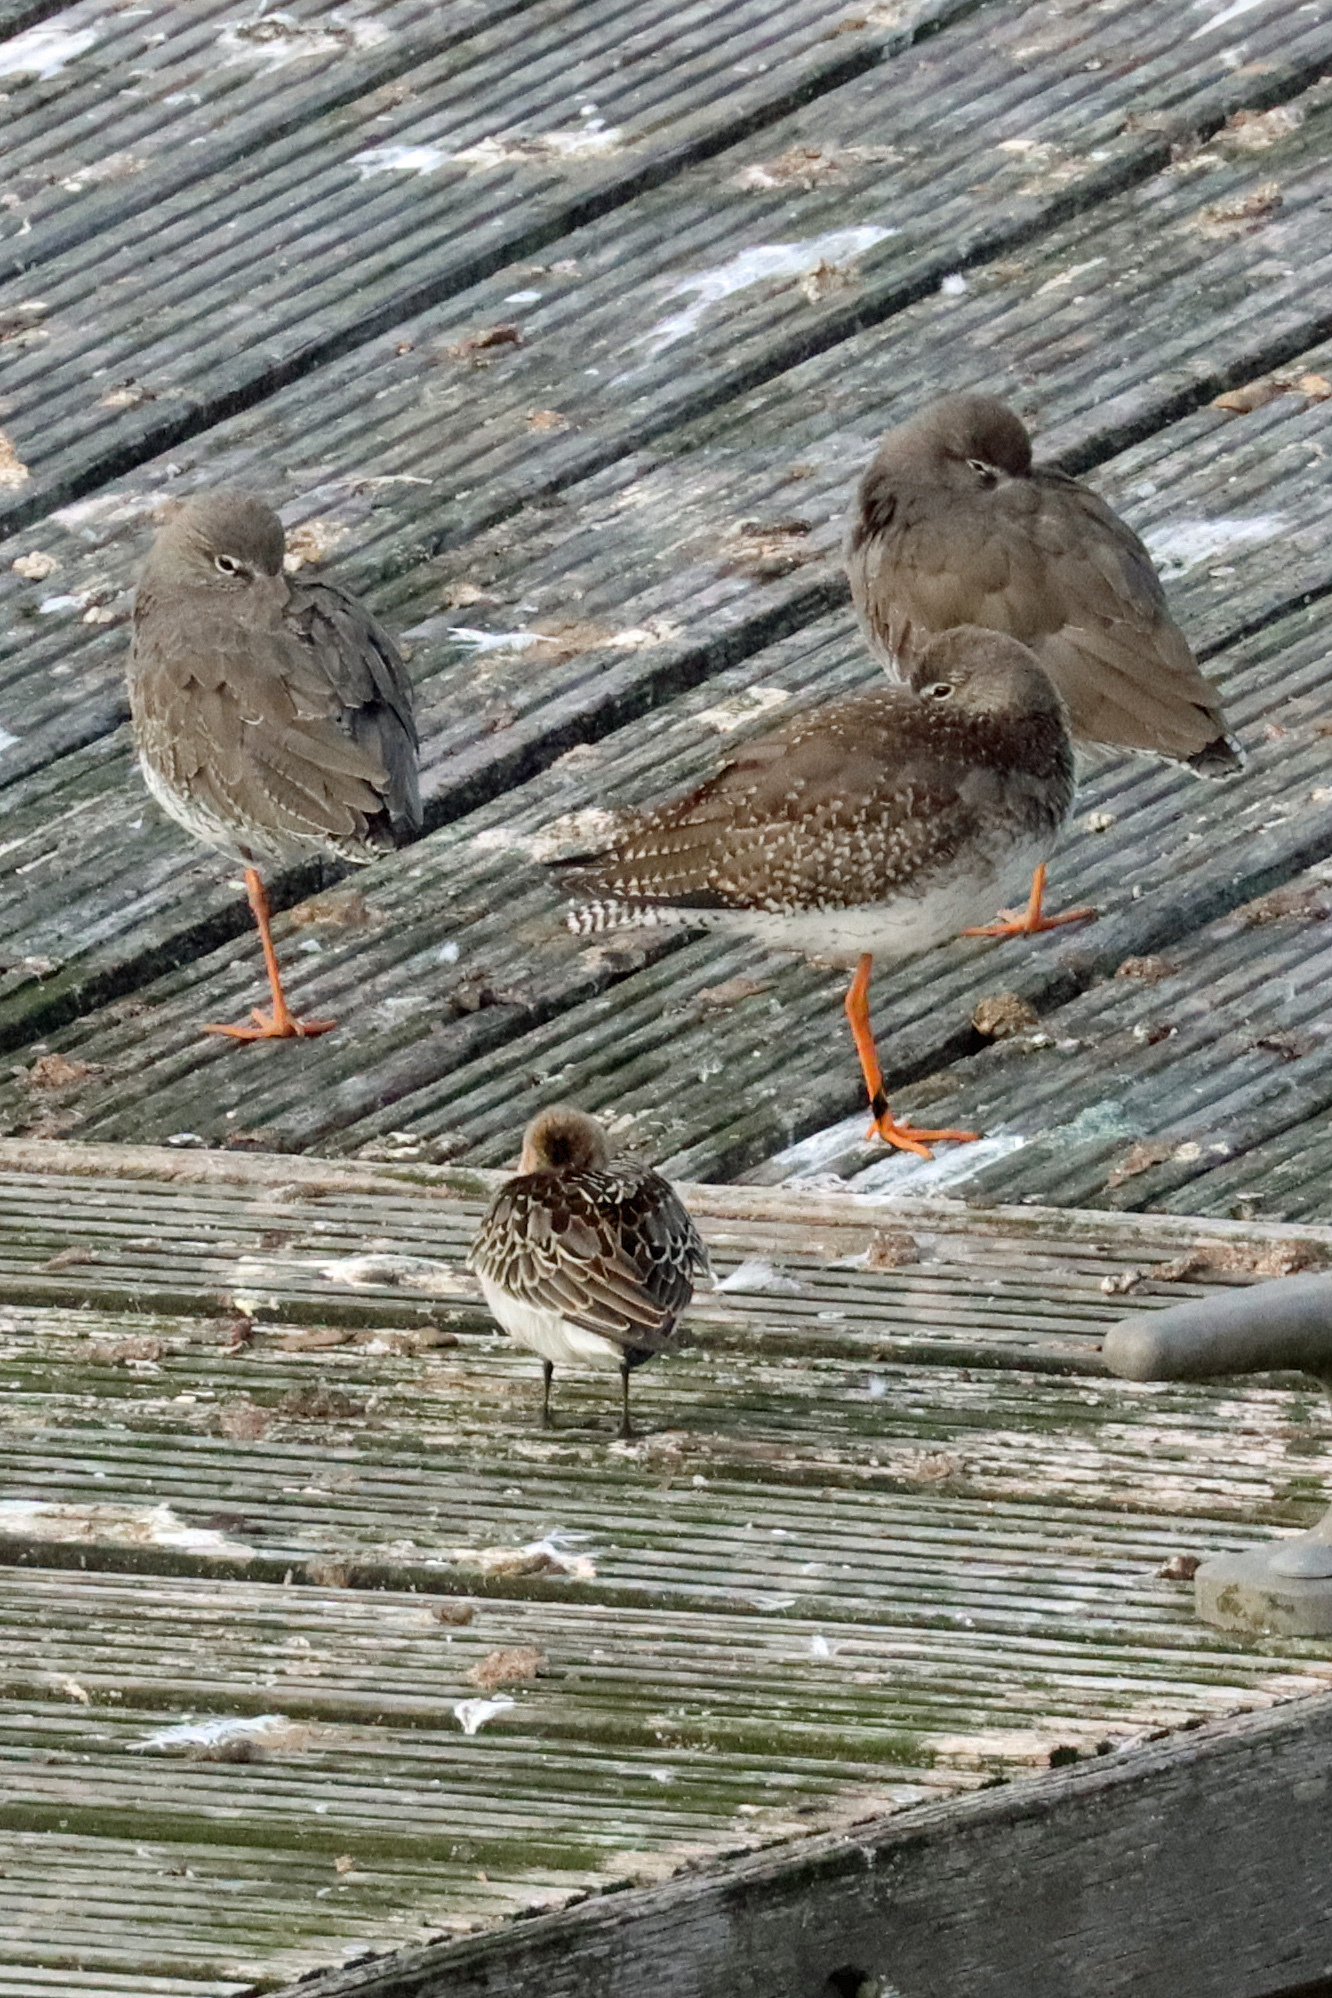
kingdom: Animalia
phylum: Chordata
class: Aves
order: Charadriiformes
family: Scolopacidae
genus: Calidris
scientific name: Calidris alpina
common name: Dunlin
